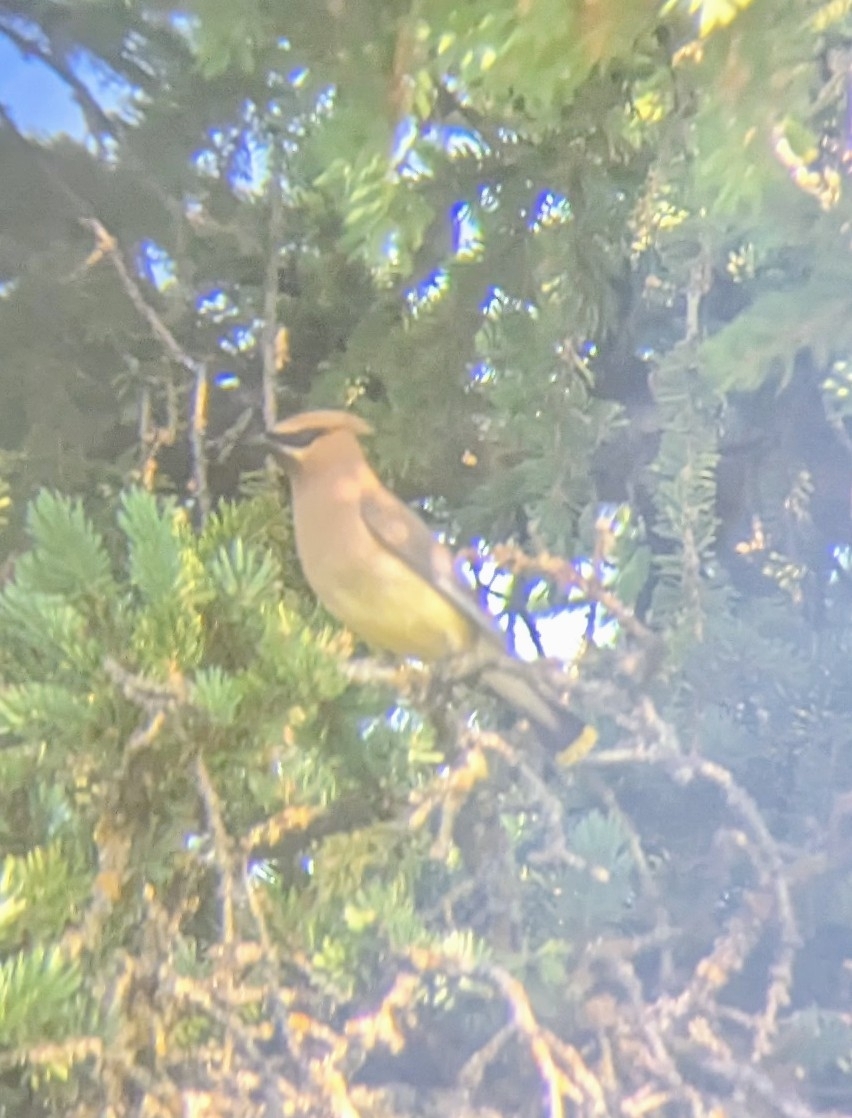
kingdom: Animalia
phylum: Chordata
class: Aves
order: Passeriformes
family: Bombycillidae
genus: Bombycilla
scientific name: Bombycilla cedrorum
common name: Cedar waxwing
